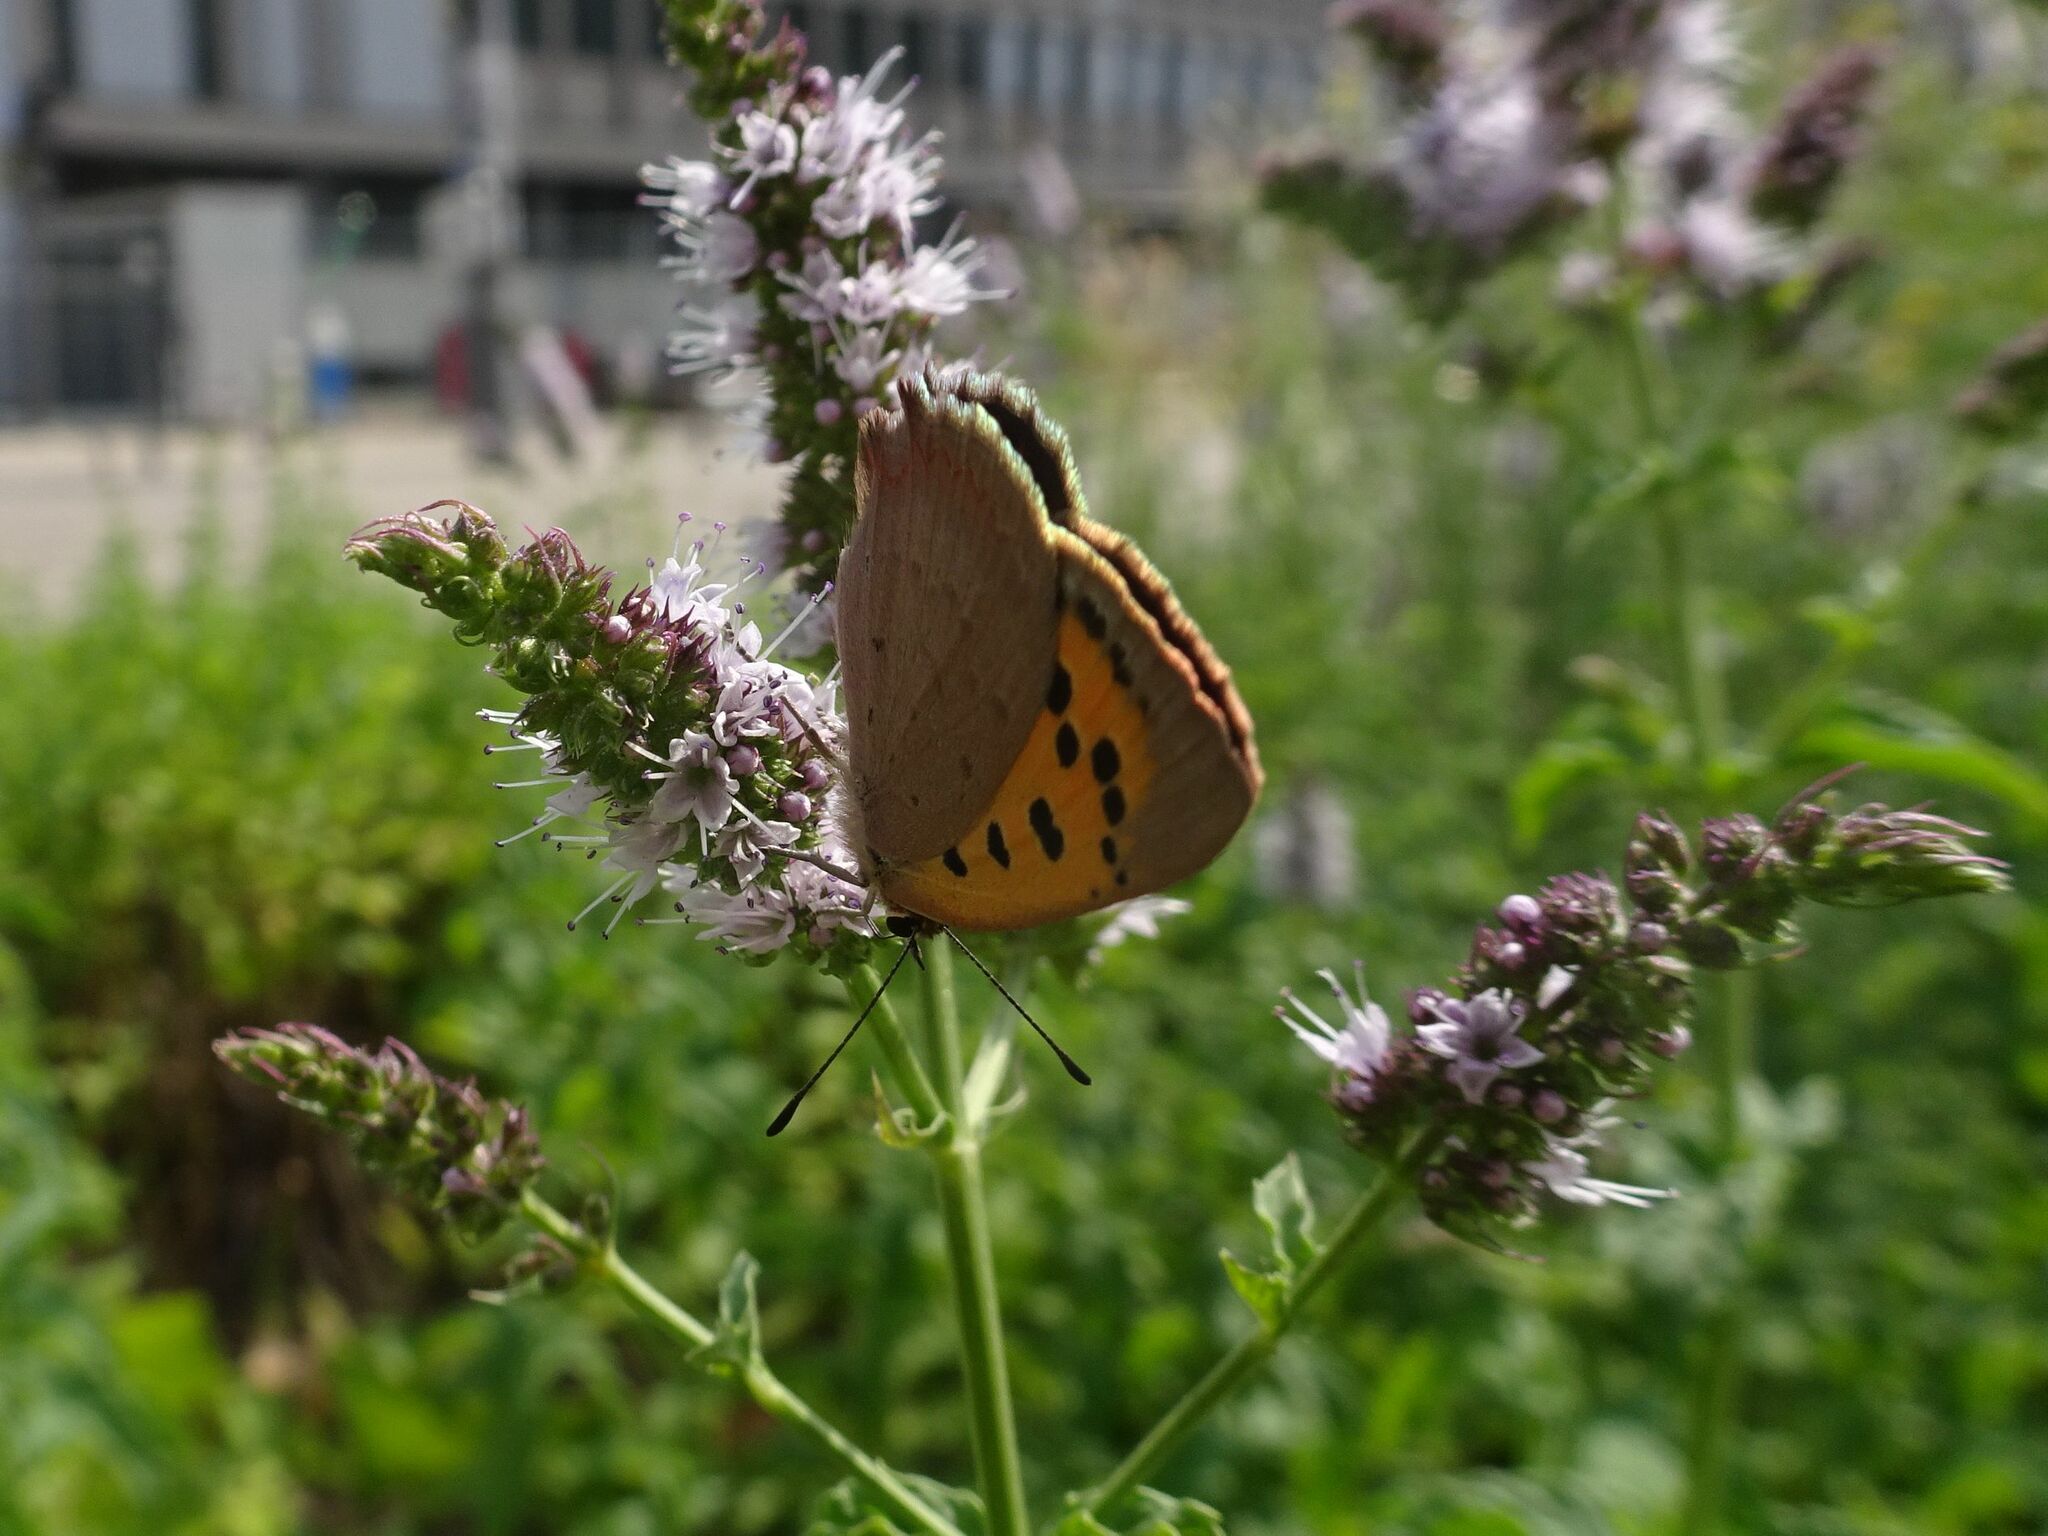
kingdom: Animalia
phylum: Arthropoda
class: Insecta
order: Lepidoptera
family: Lycaenidae
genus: Lycaena
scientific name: Lycaena phlaeas
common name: Small copper
